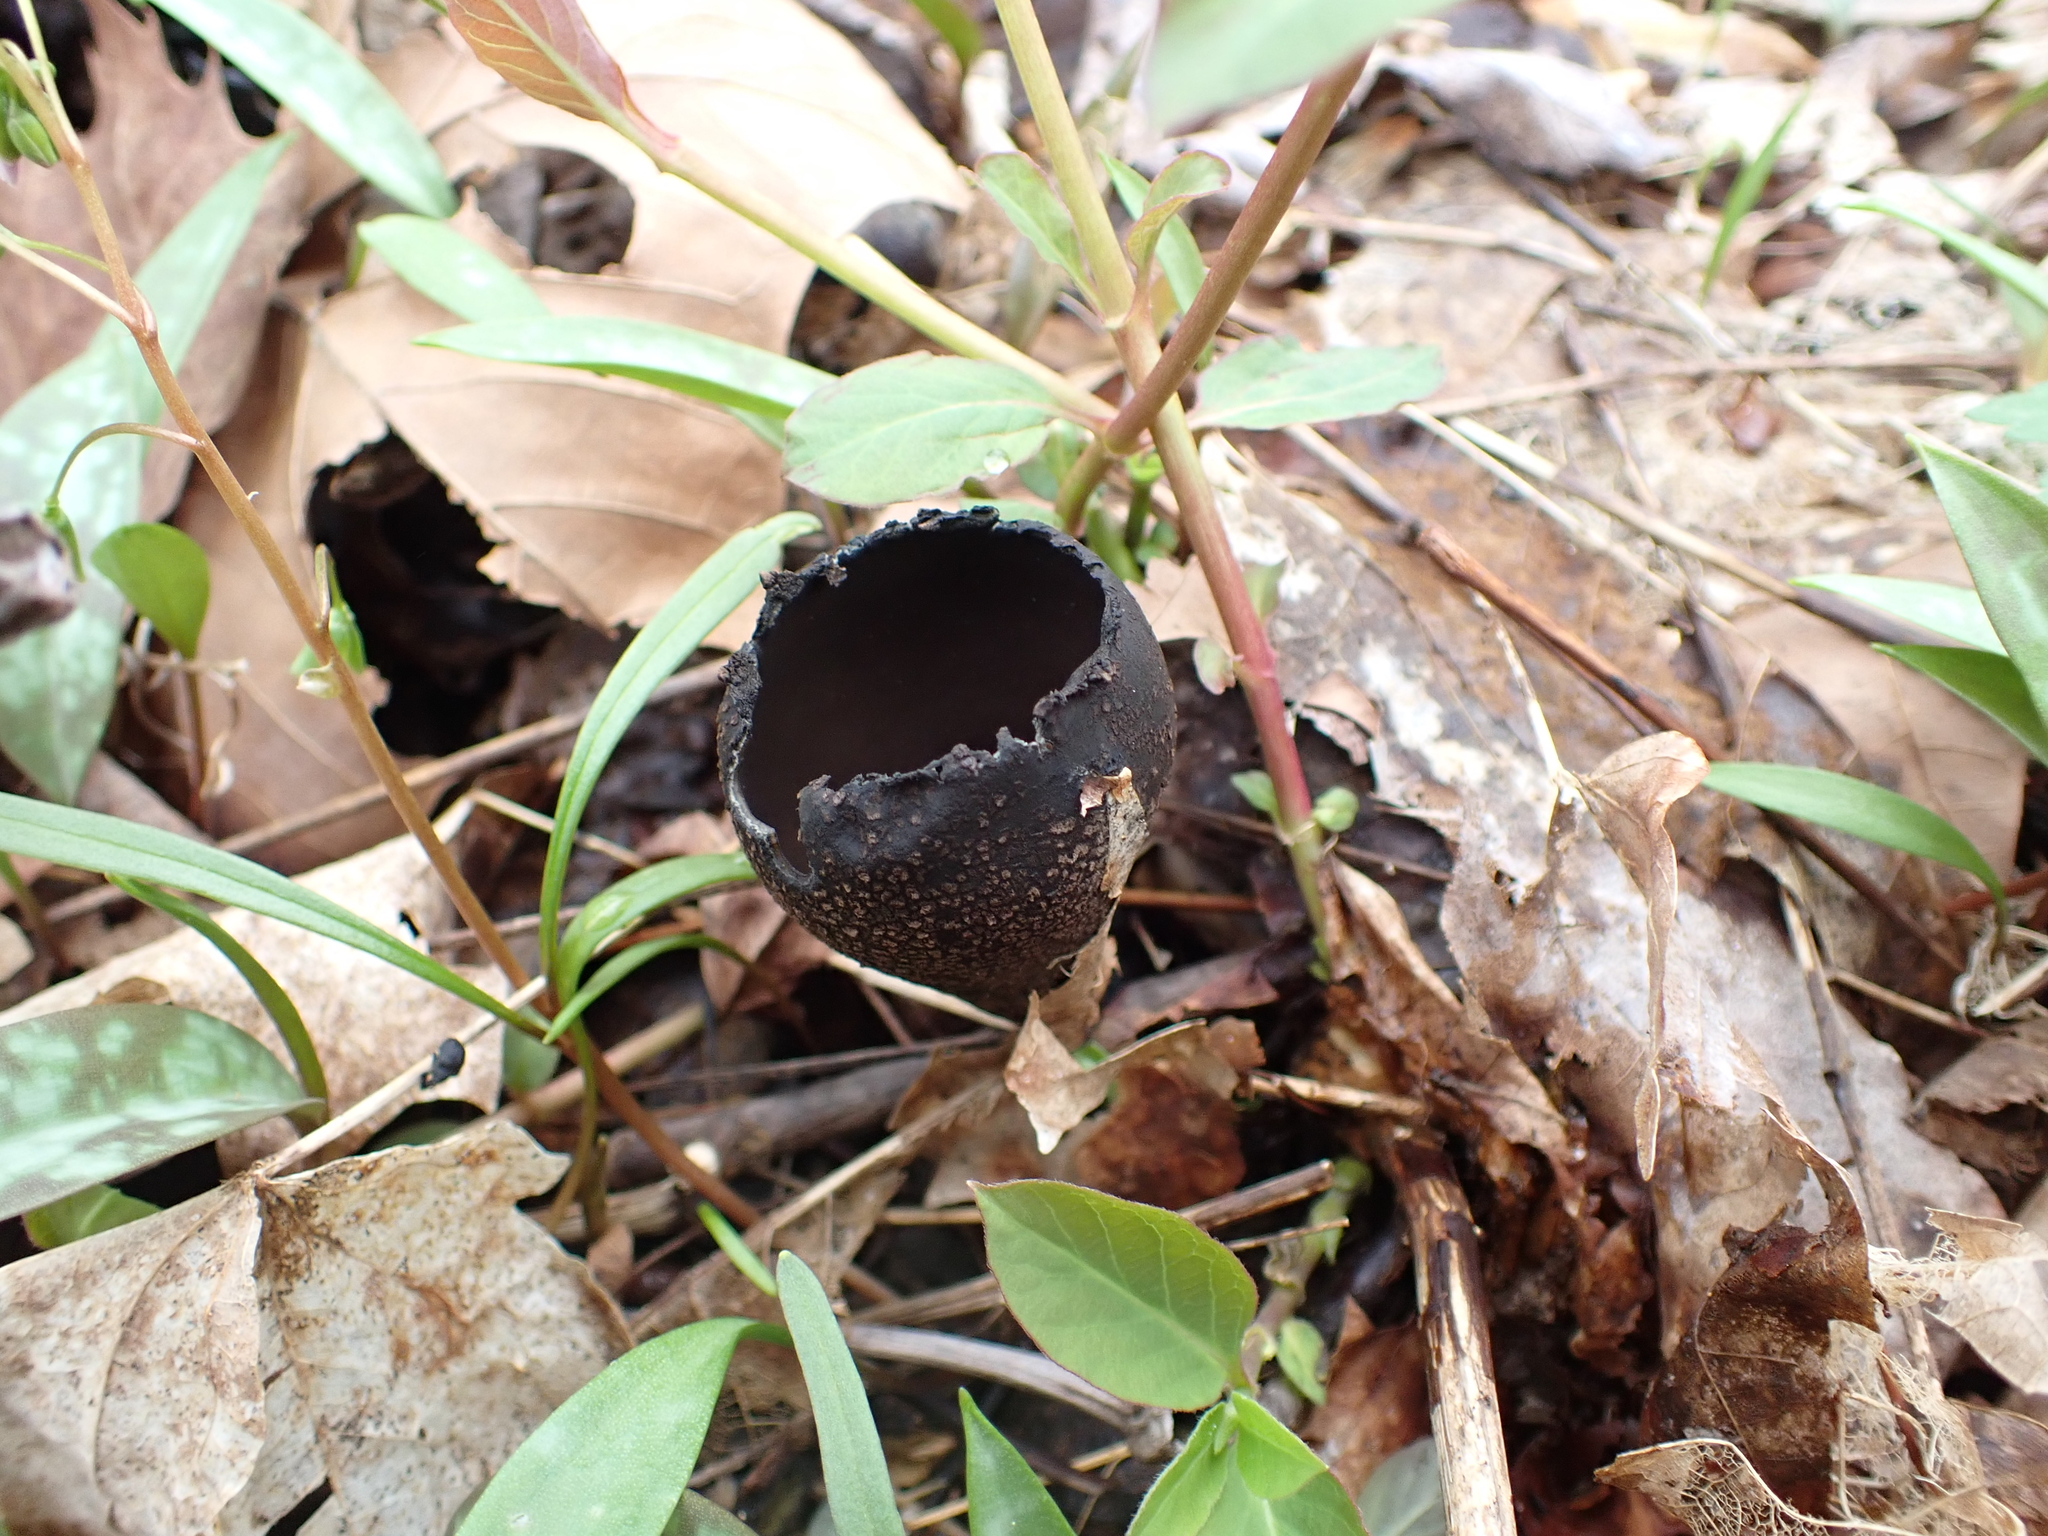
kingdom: Fungi
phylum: Ascomycota
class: Pezizomycetes
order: Pezizales
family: Sarcosomataceae
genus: Urnula
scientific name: Urnula craterium
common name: Devil's urn
